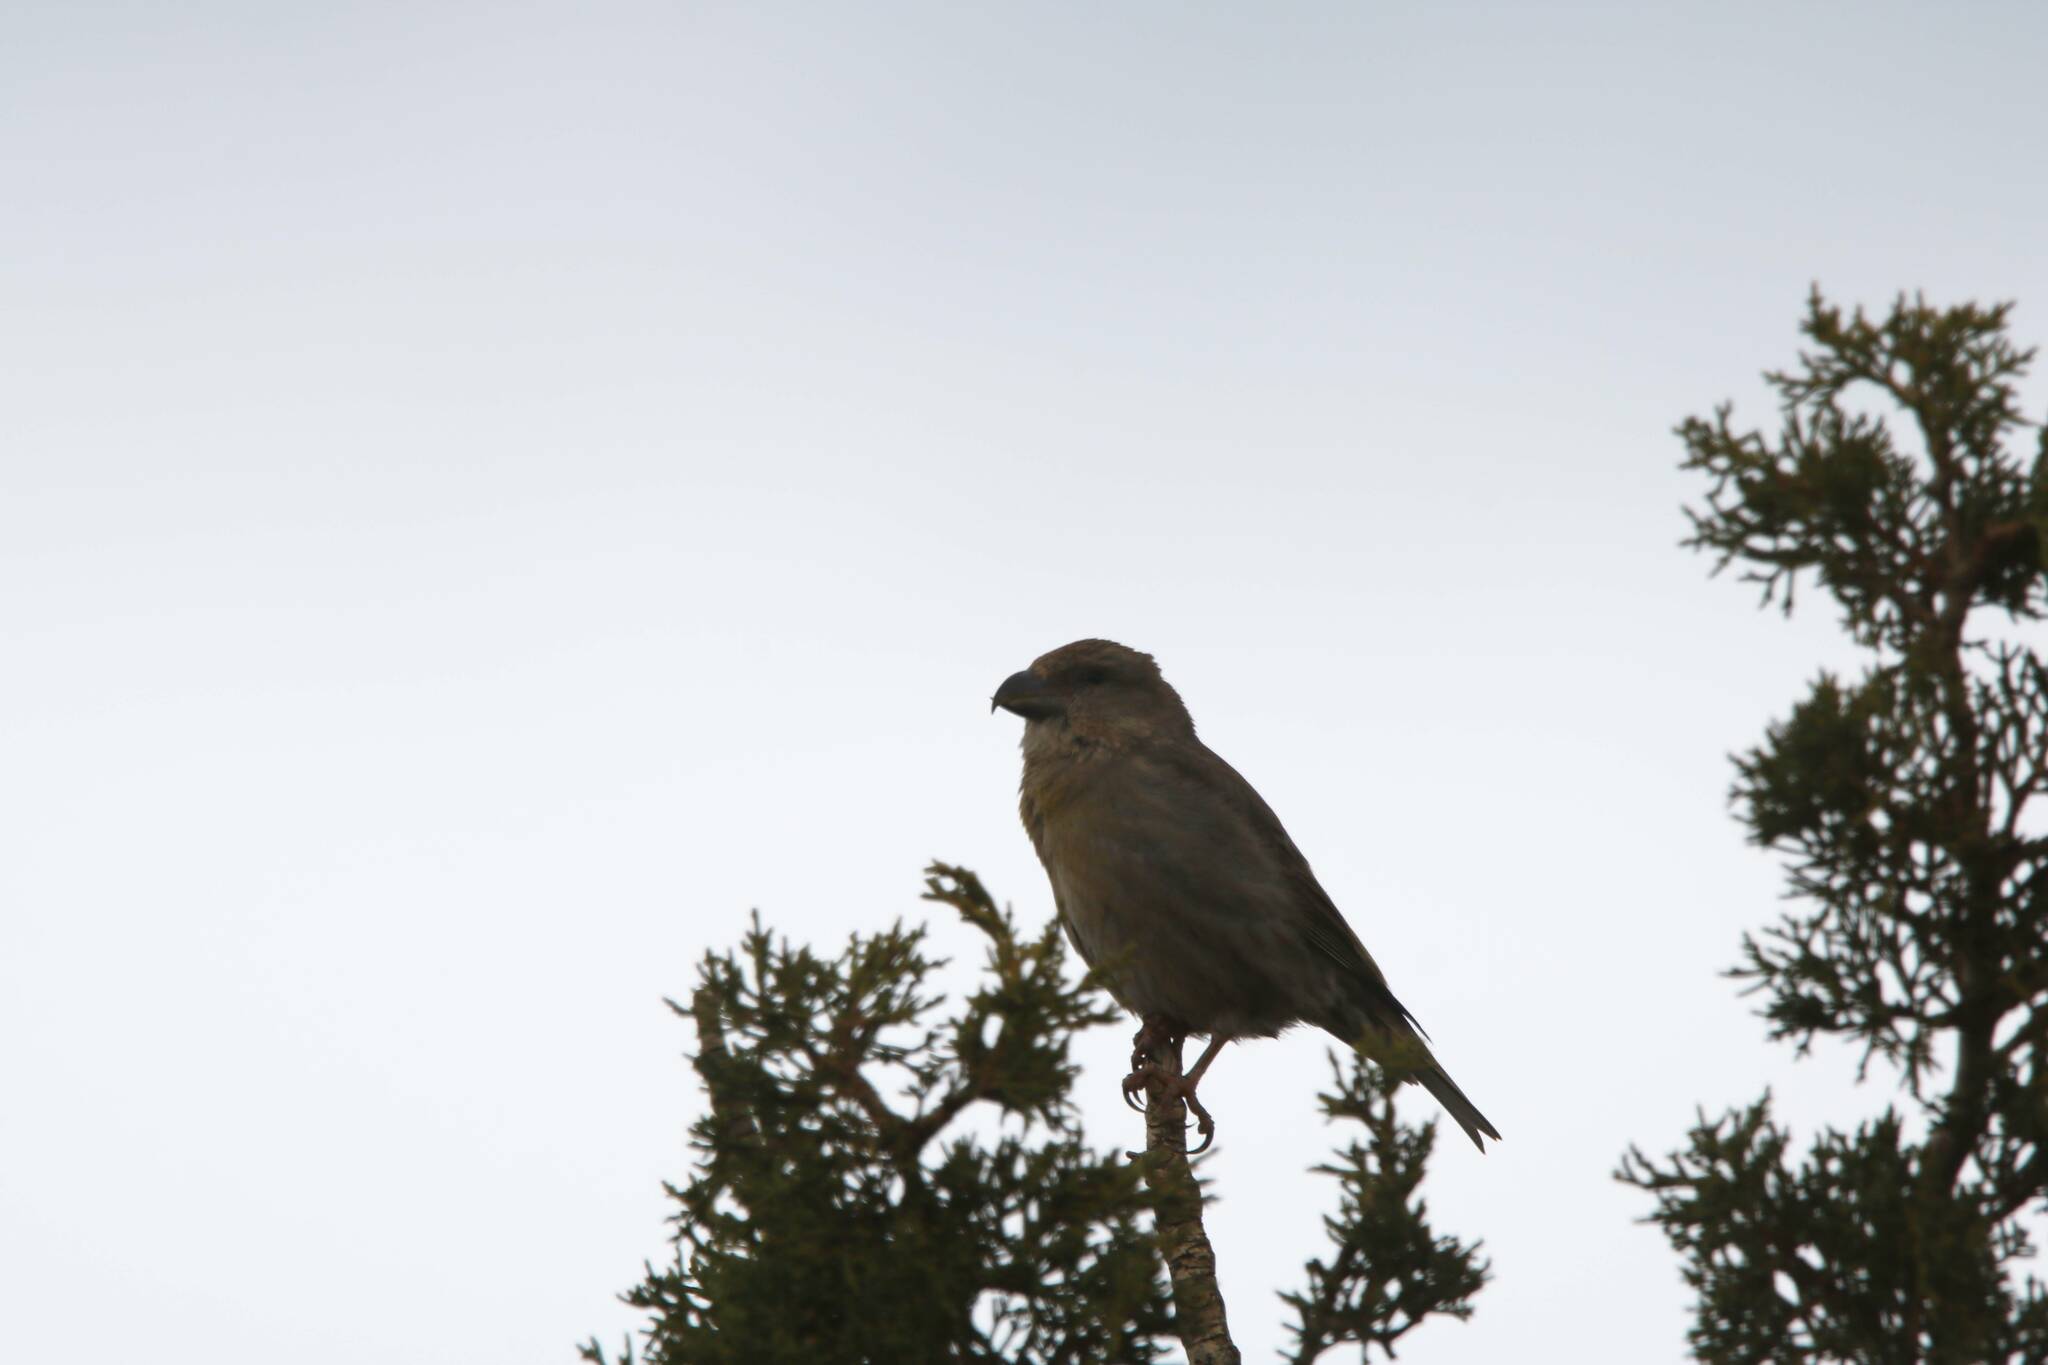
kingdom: Animalia
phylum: Chordata
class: Aves
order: Passeriformes
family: Fringillidae
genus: Loxia
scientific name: Loxia curvirostra
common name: Red crossbill
